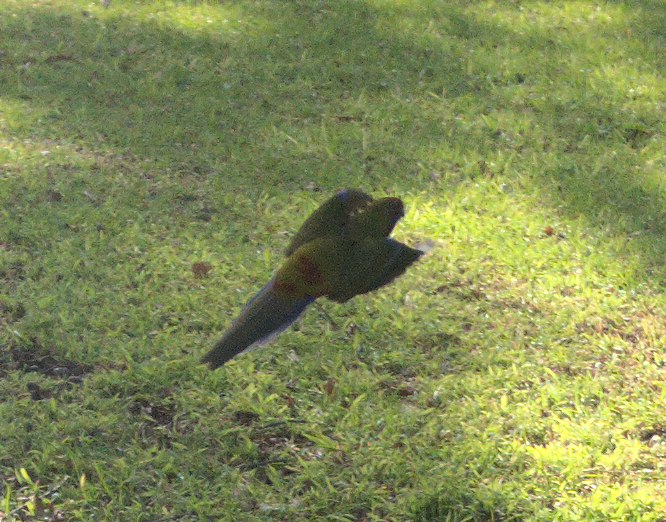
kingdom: Animalia
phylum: Chordata
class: Aves
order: Psittaciformes
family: Psittacidae
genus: Platycercus
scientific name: Platycercus elegans
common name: Crimson rosella
